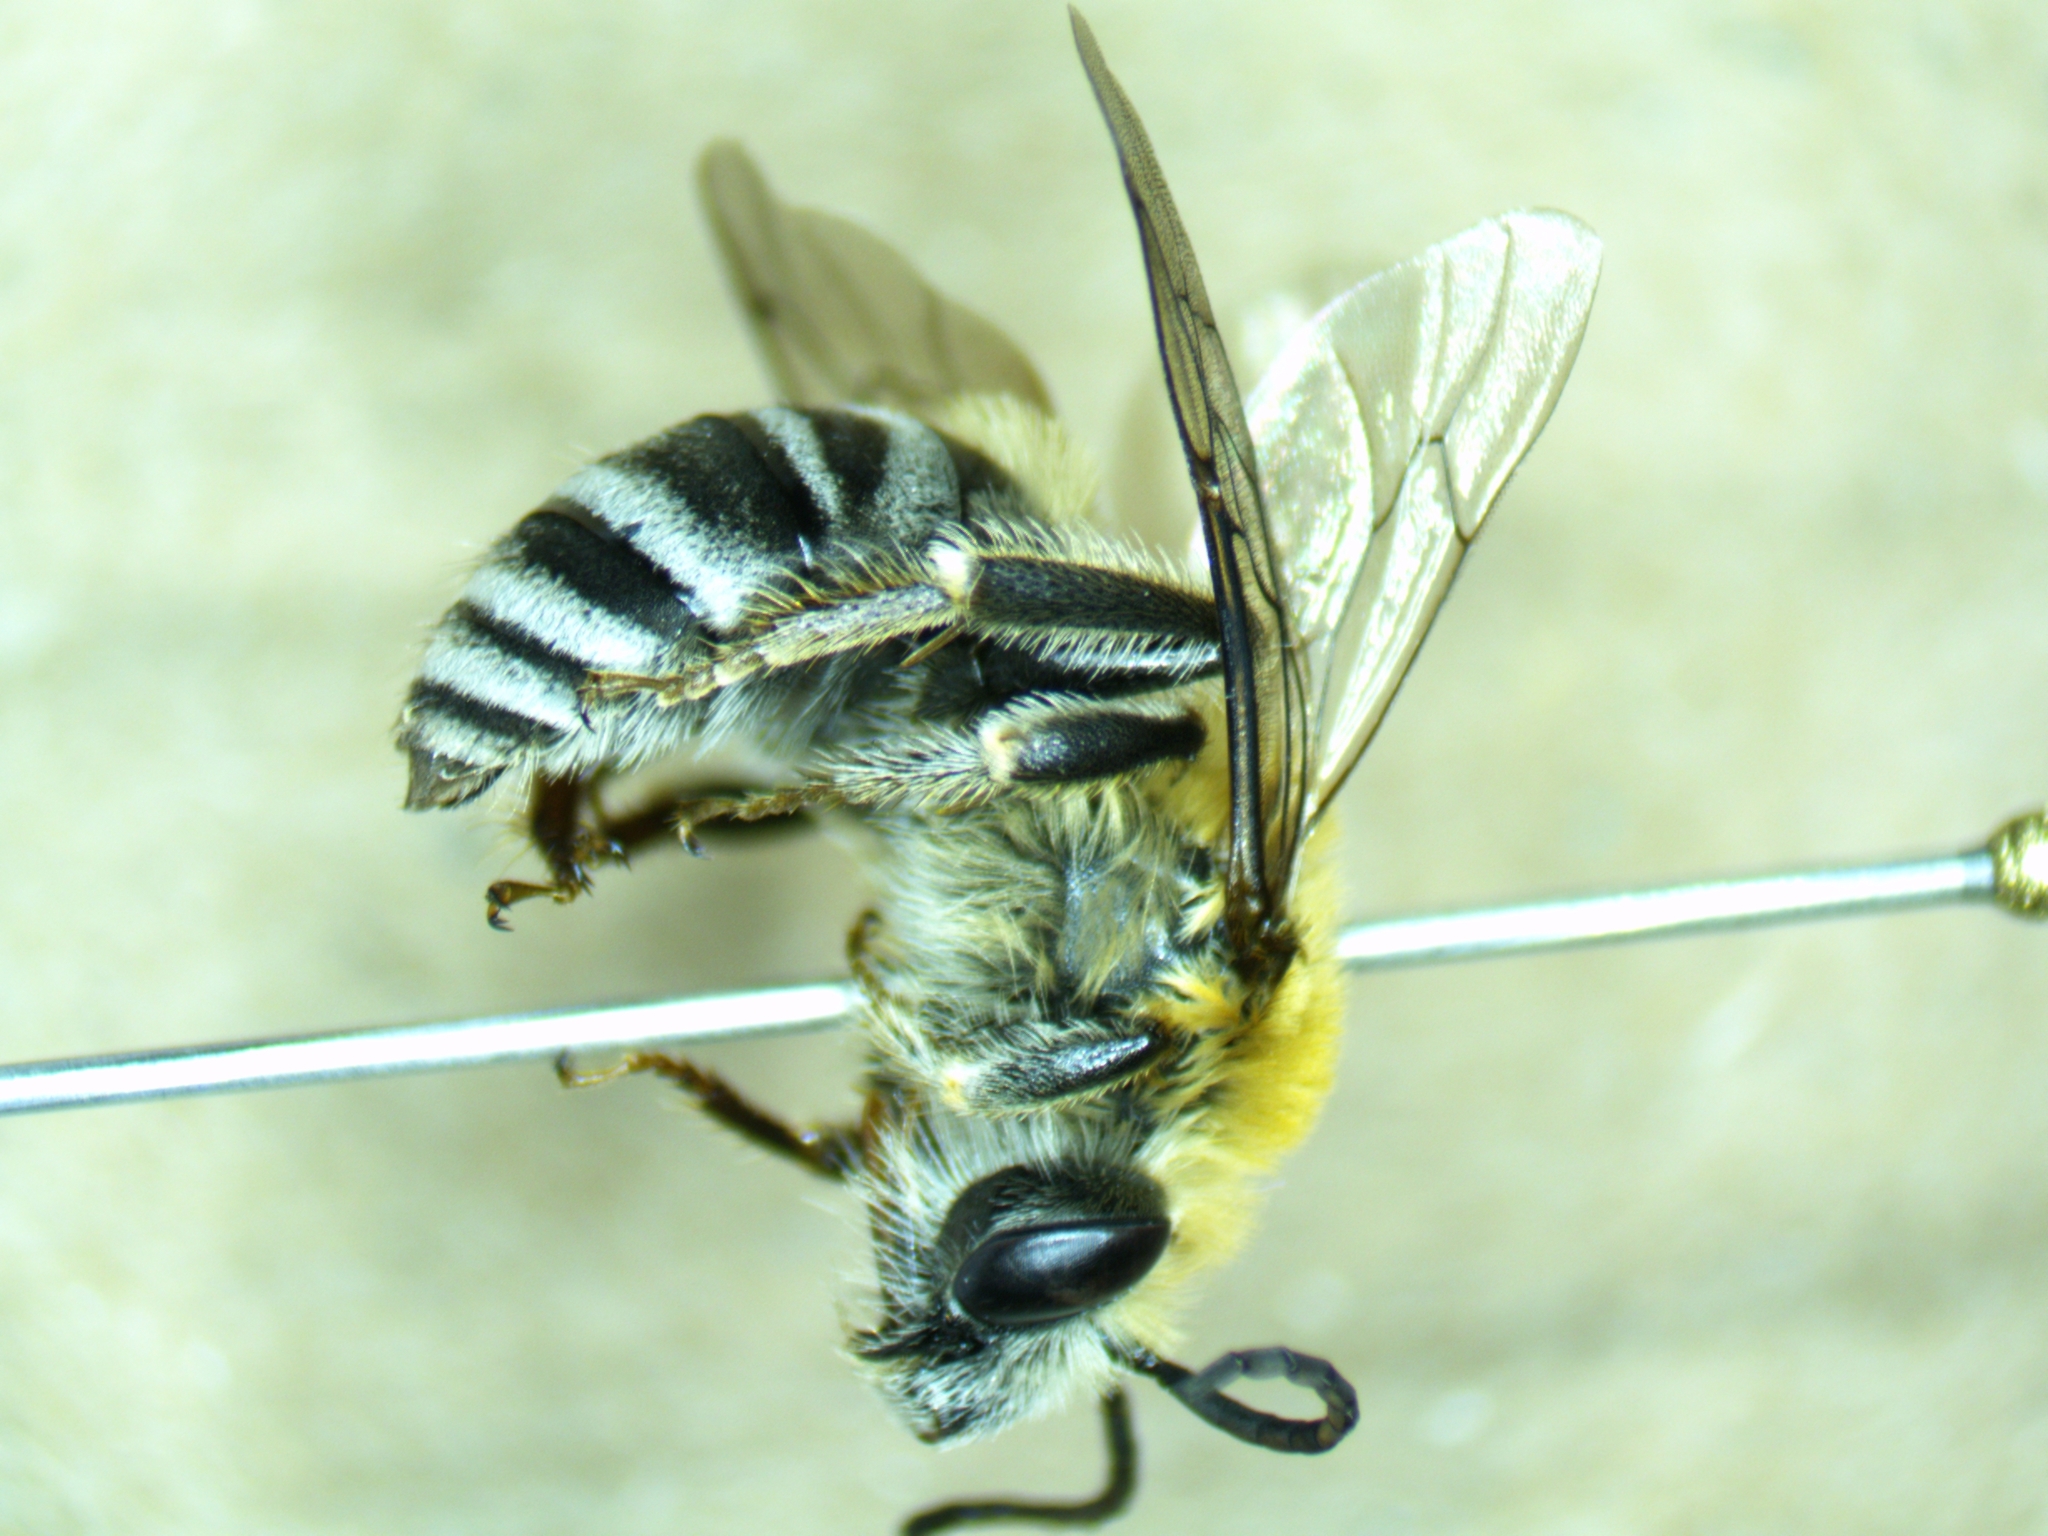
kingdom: Animalia
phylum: Arthropoda
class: Insecta
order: Hymenoptera
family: Apidae
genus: Peponapis
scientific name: Peponapis pruinosa
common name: Pruinose squash bee
